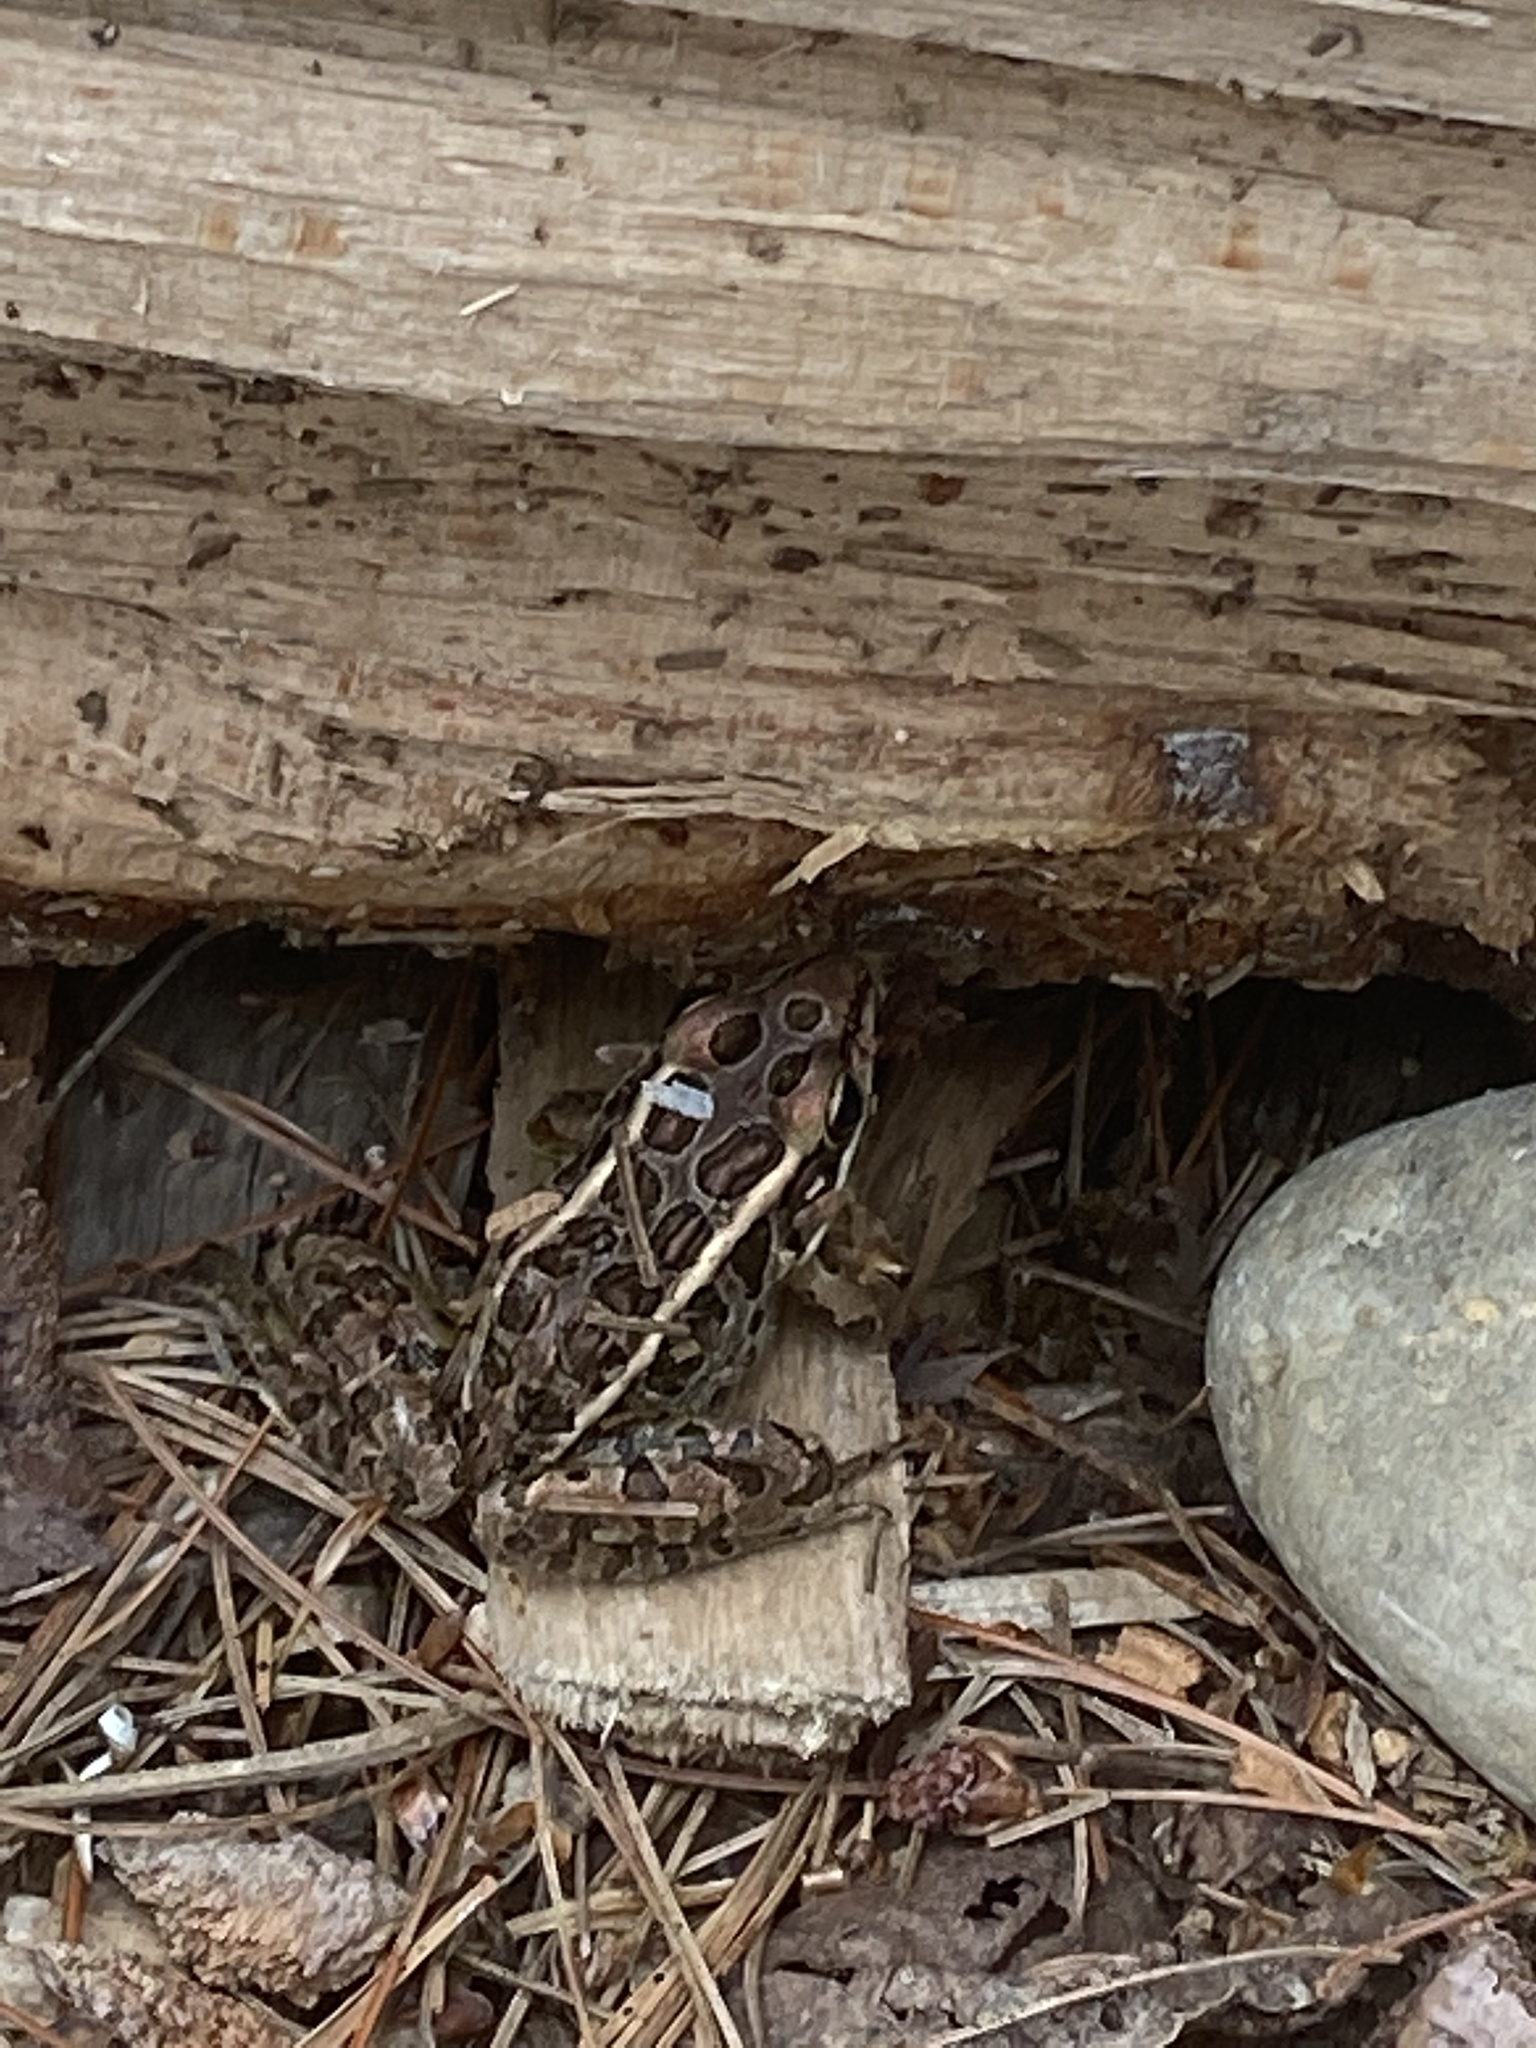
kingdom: Animalia
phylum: Chordata
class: Amphibia
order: Anura
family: Ranidae
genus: Lithobates
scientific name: Lithobates palustris
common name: Pickerel frog
